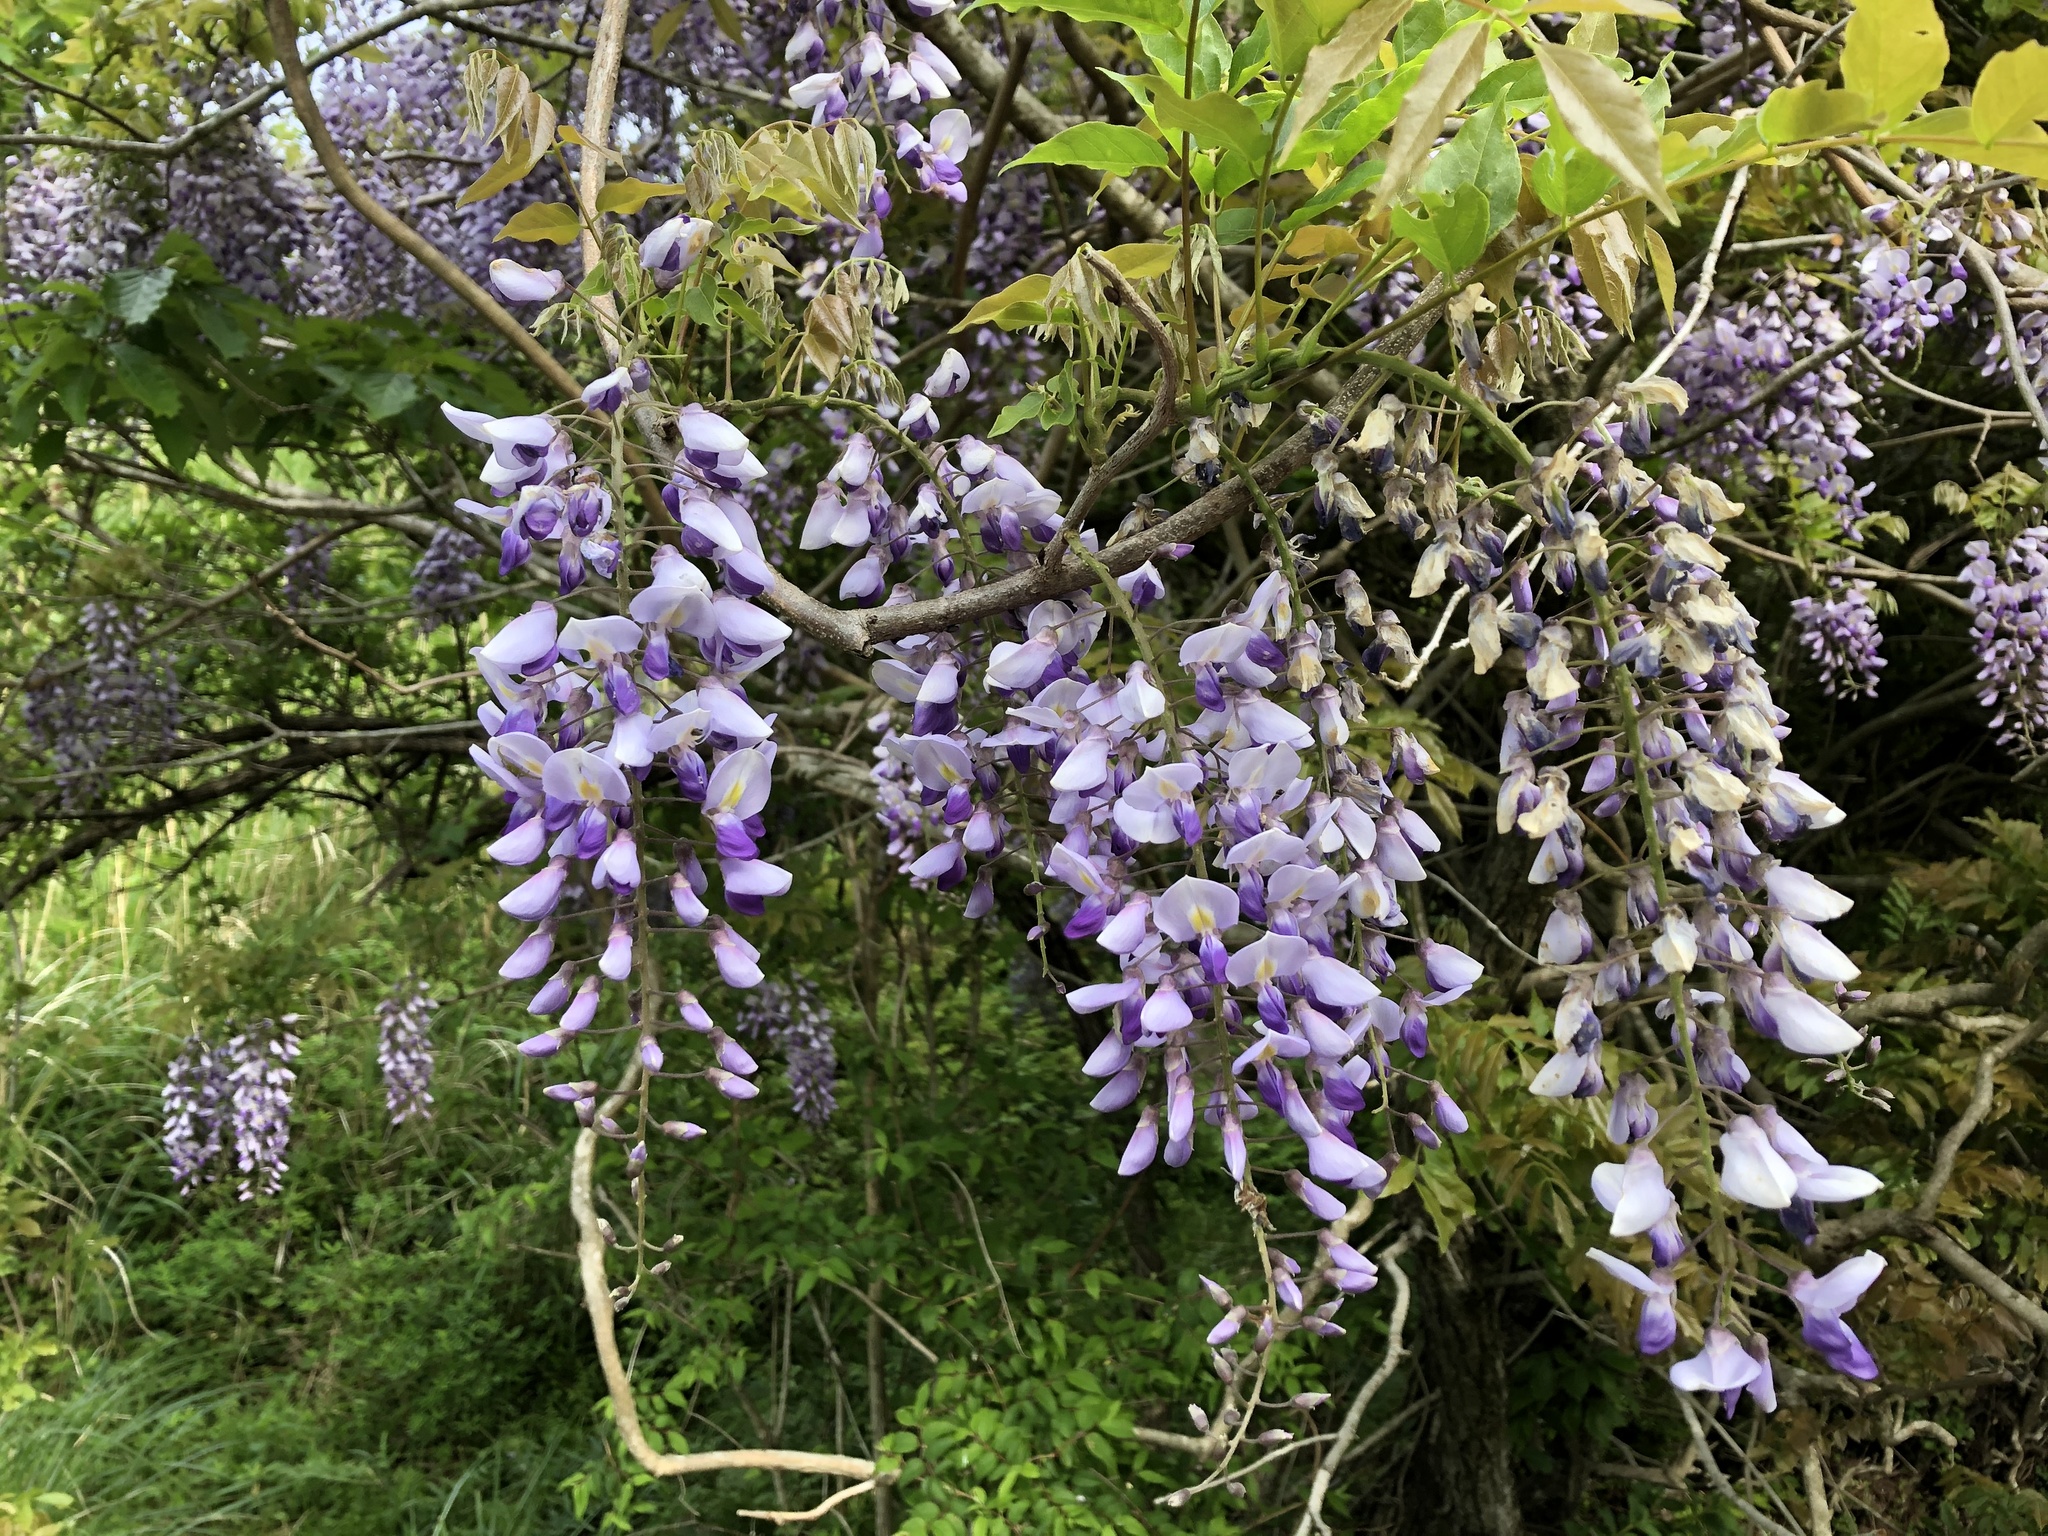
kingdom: Plantae
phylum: Tracheophyta
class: Magnoliopsida
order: Fabales
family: Fabaceae
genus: Wisteria
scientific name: Wisteria floribunda
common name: Japanese wisteria
